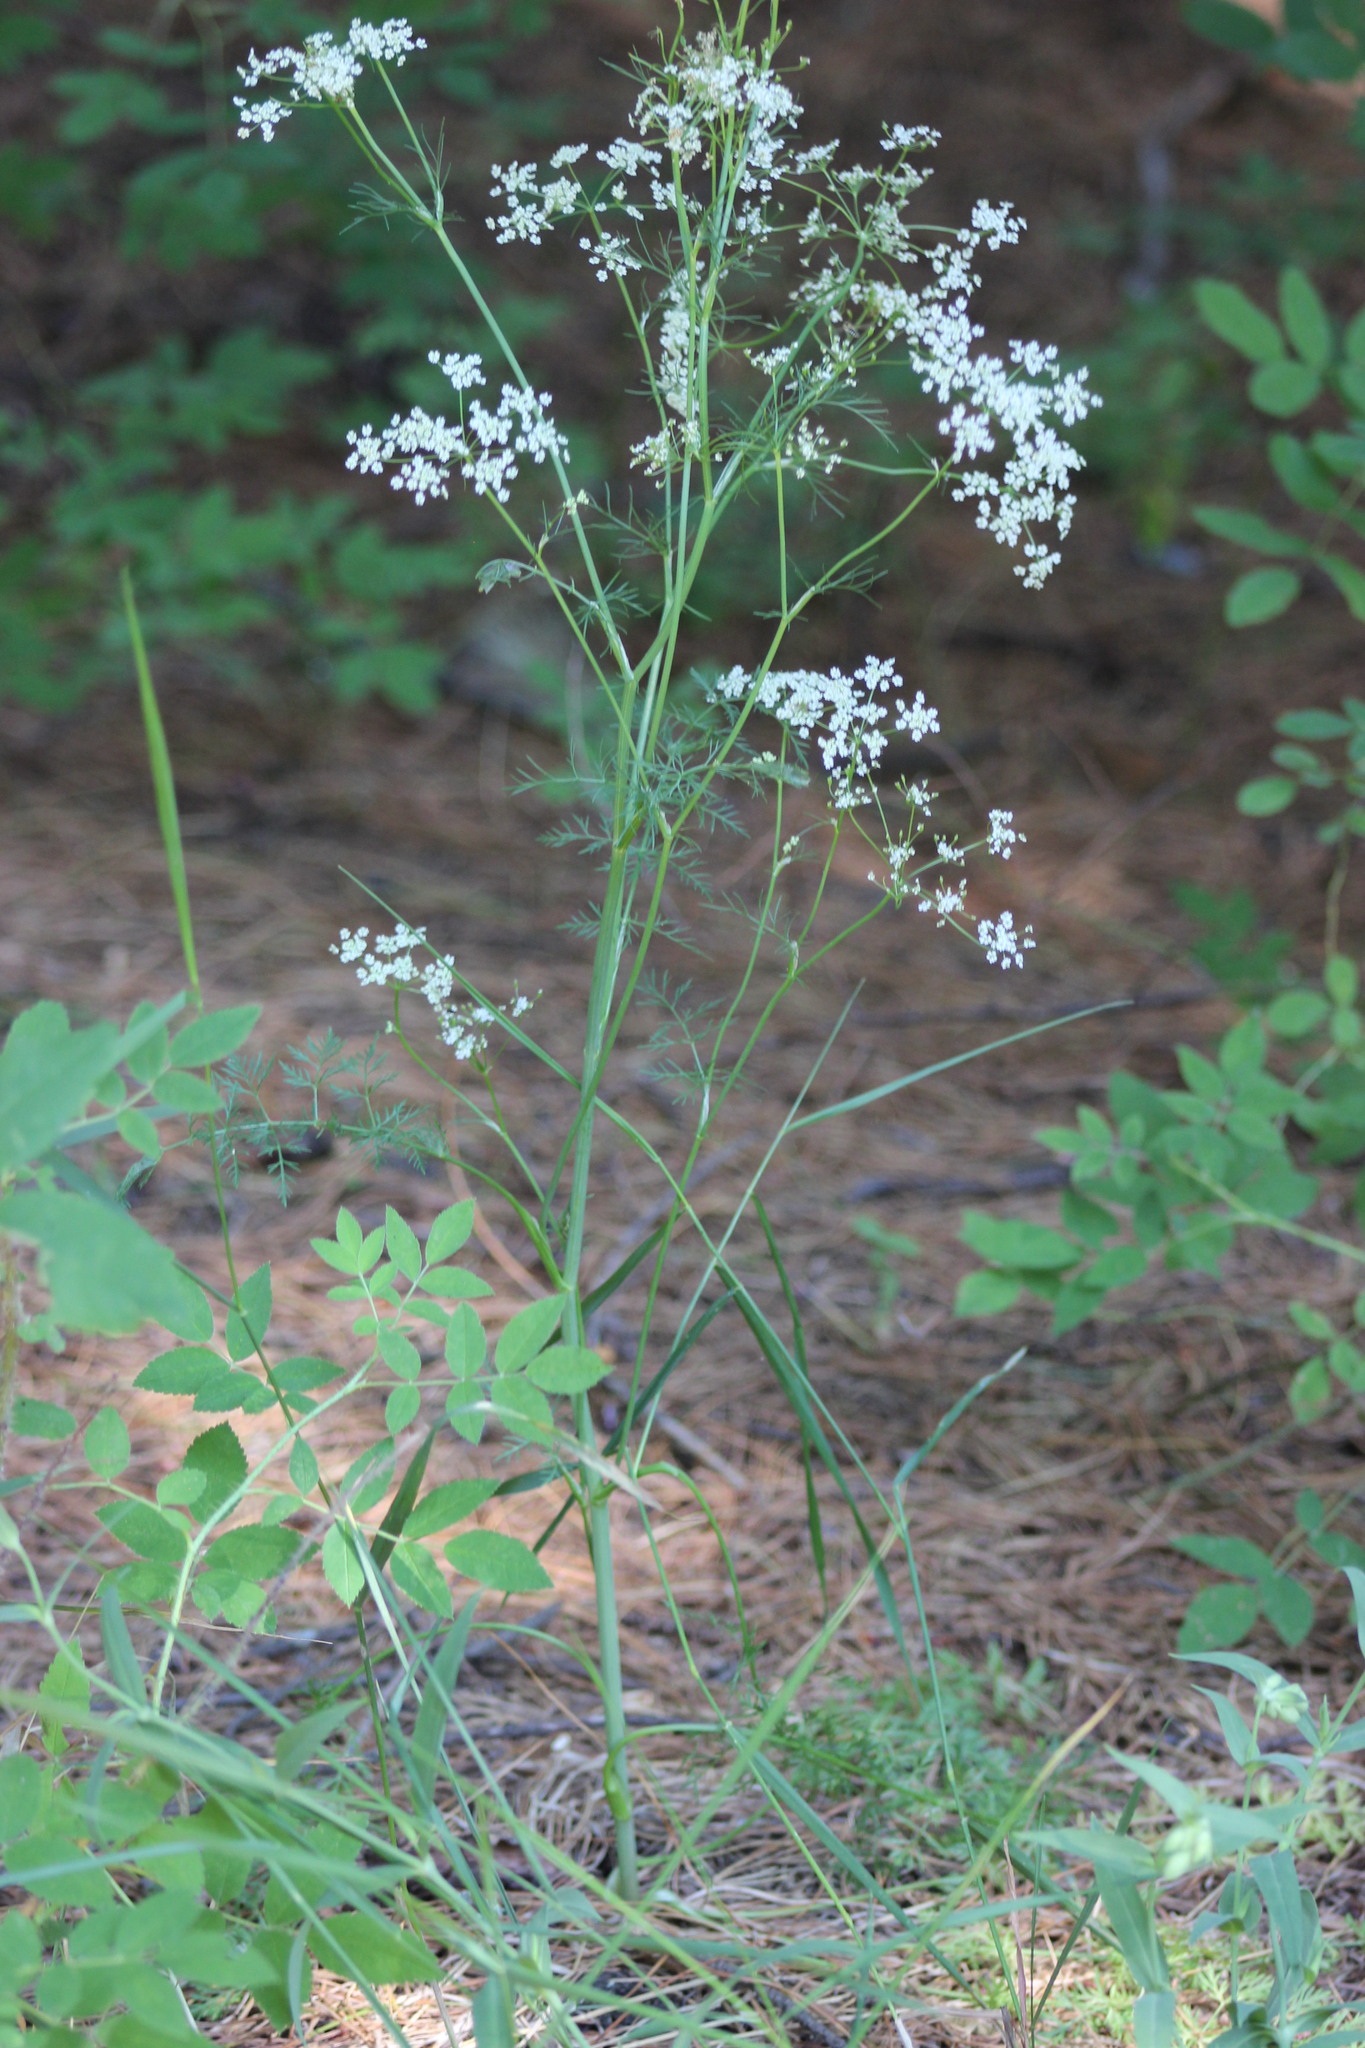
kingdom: Plantae
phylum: Tracheophyta
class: Magnoliopsida
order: Apiales
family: Apiaceae
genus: Carum
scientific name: Carum carvi
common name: Caraway
